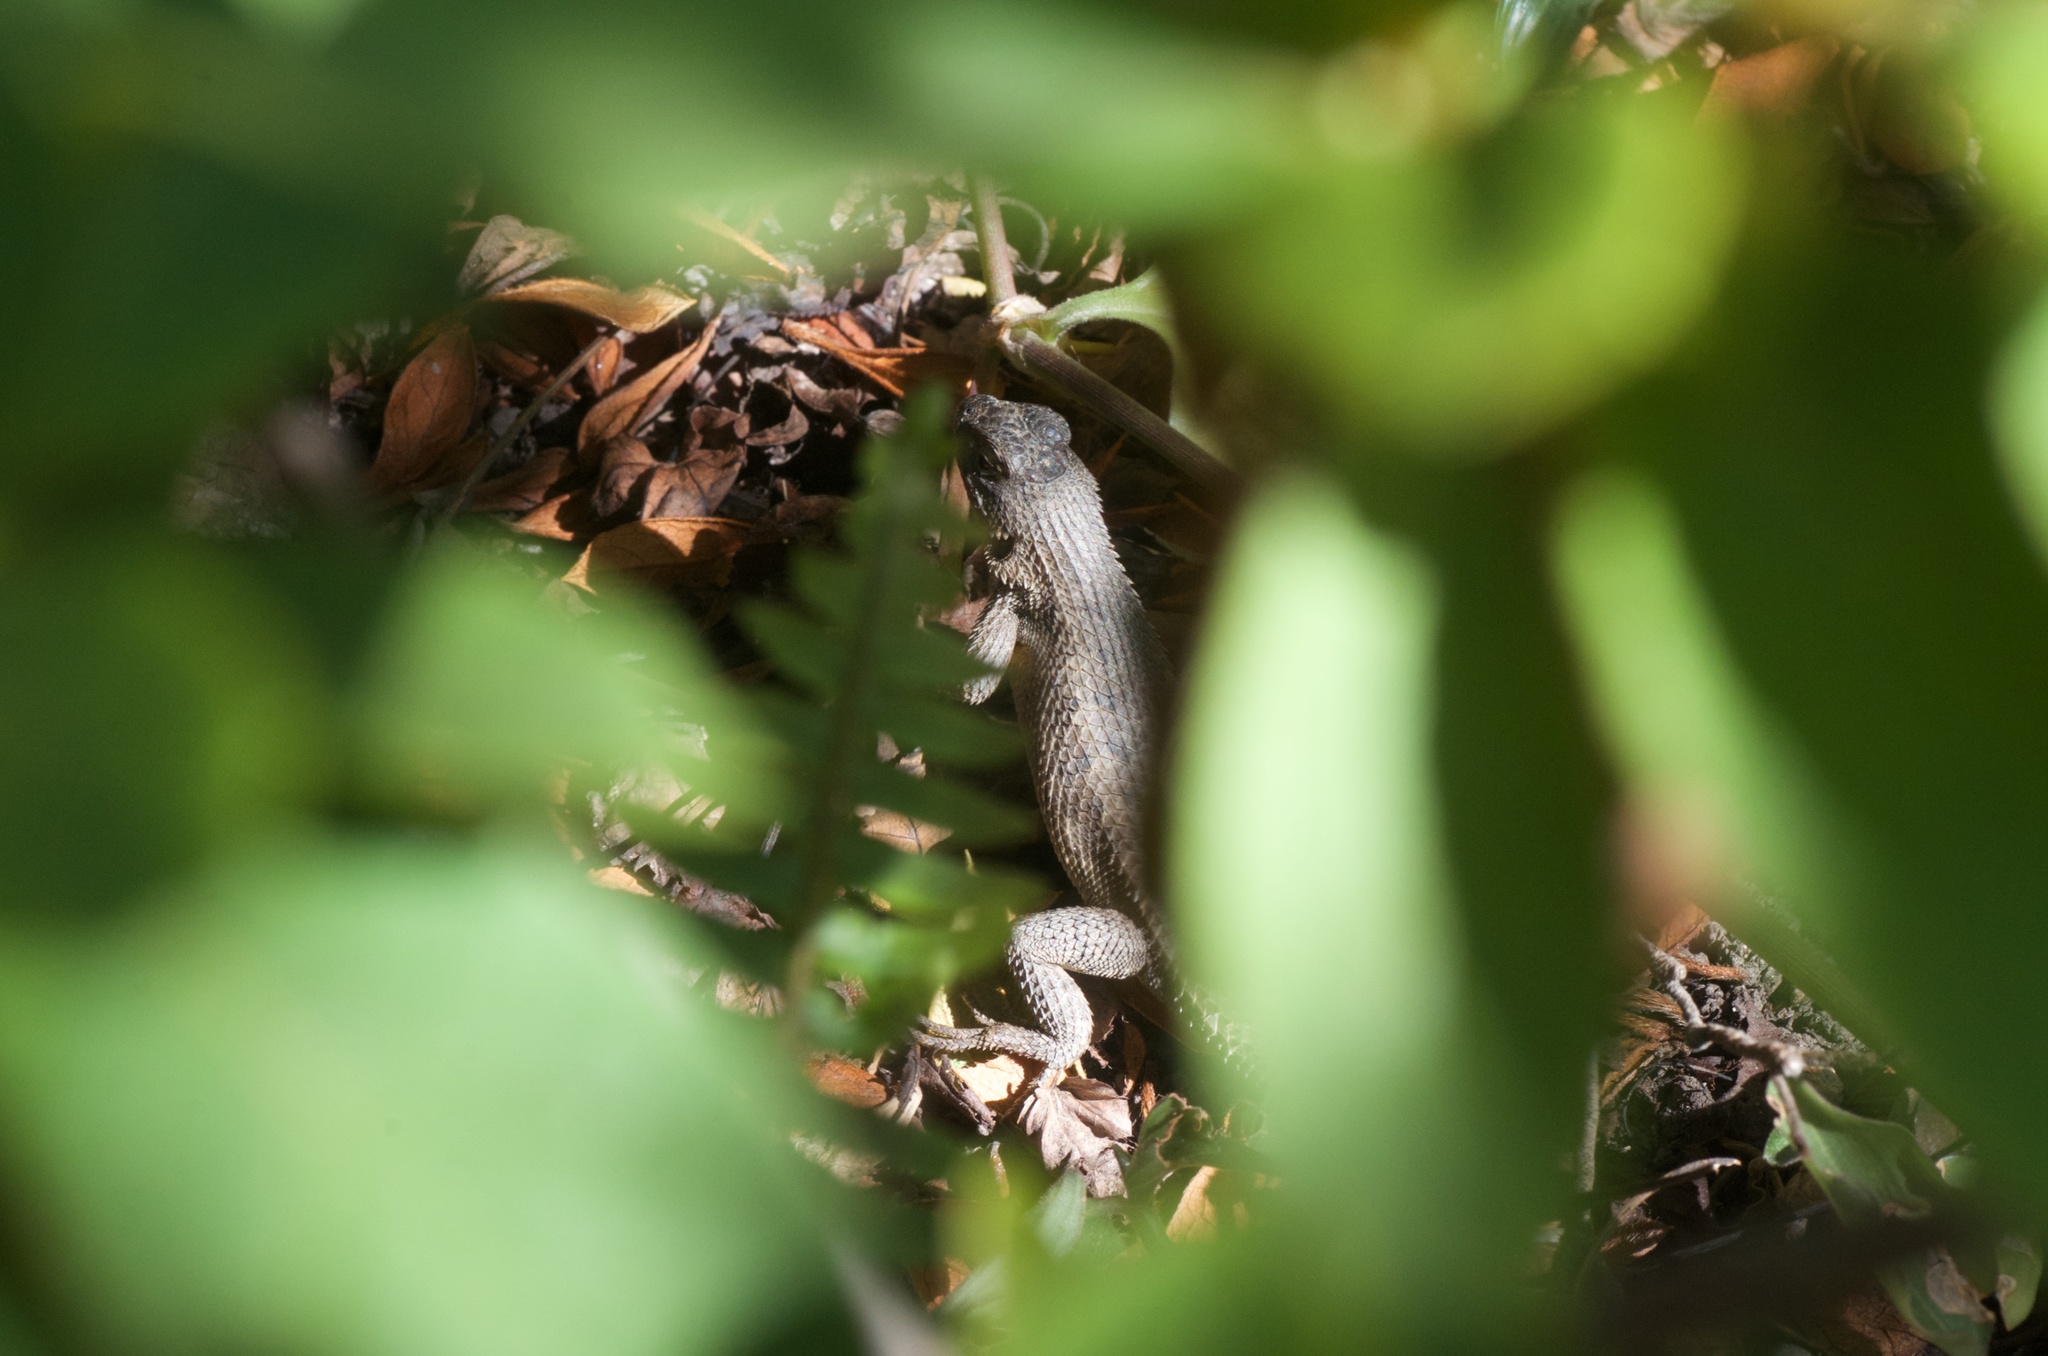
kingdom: Animalia
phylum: Chordata
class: Squamata
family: Phrynosomatidae
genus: Sceloporus
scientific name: Sceloporus occidentalis
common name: Western fence lizard
